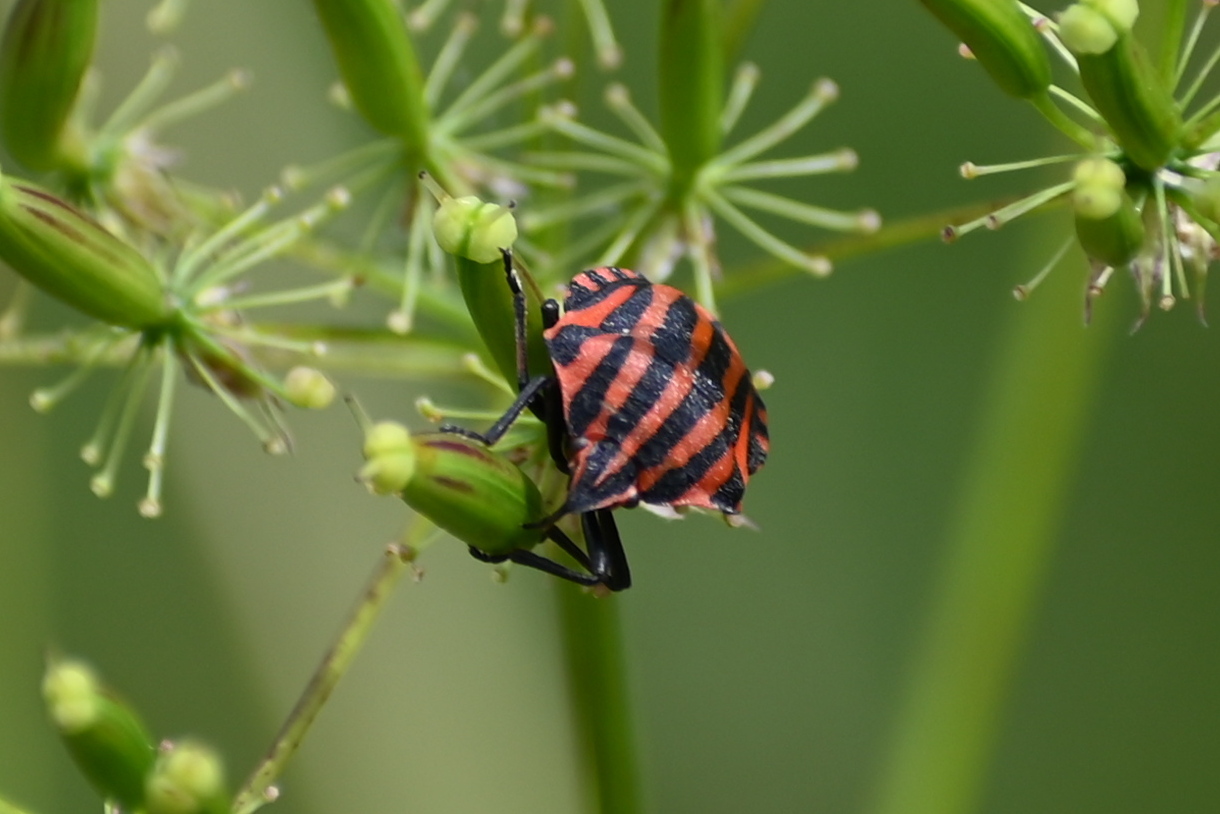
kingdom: Animalia
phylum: Arthropoda
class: Insecta
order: Hemiptera
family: Pentatomidae
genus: Graphosoma
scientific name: Graphosoma italicum
